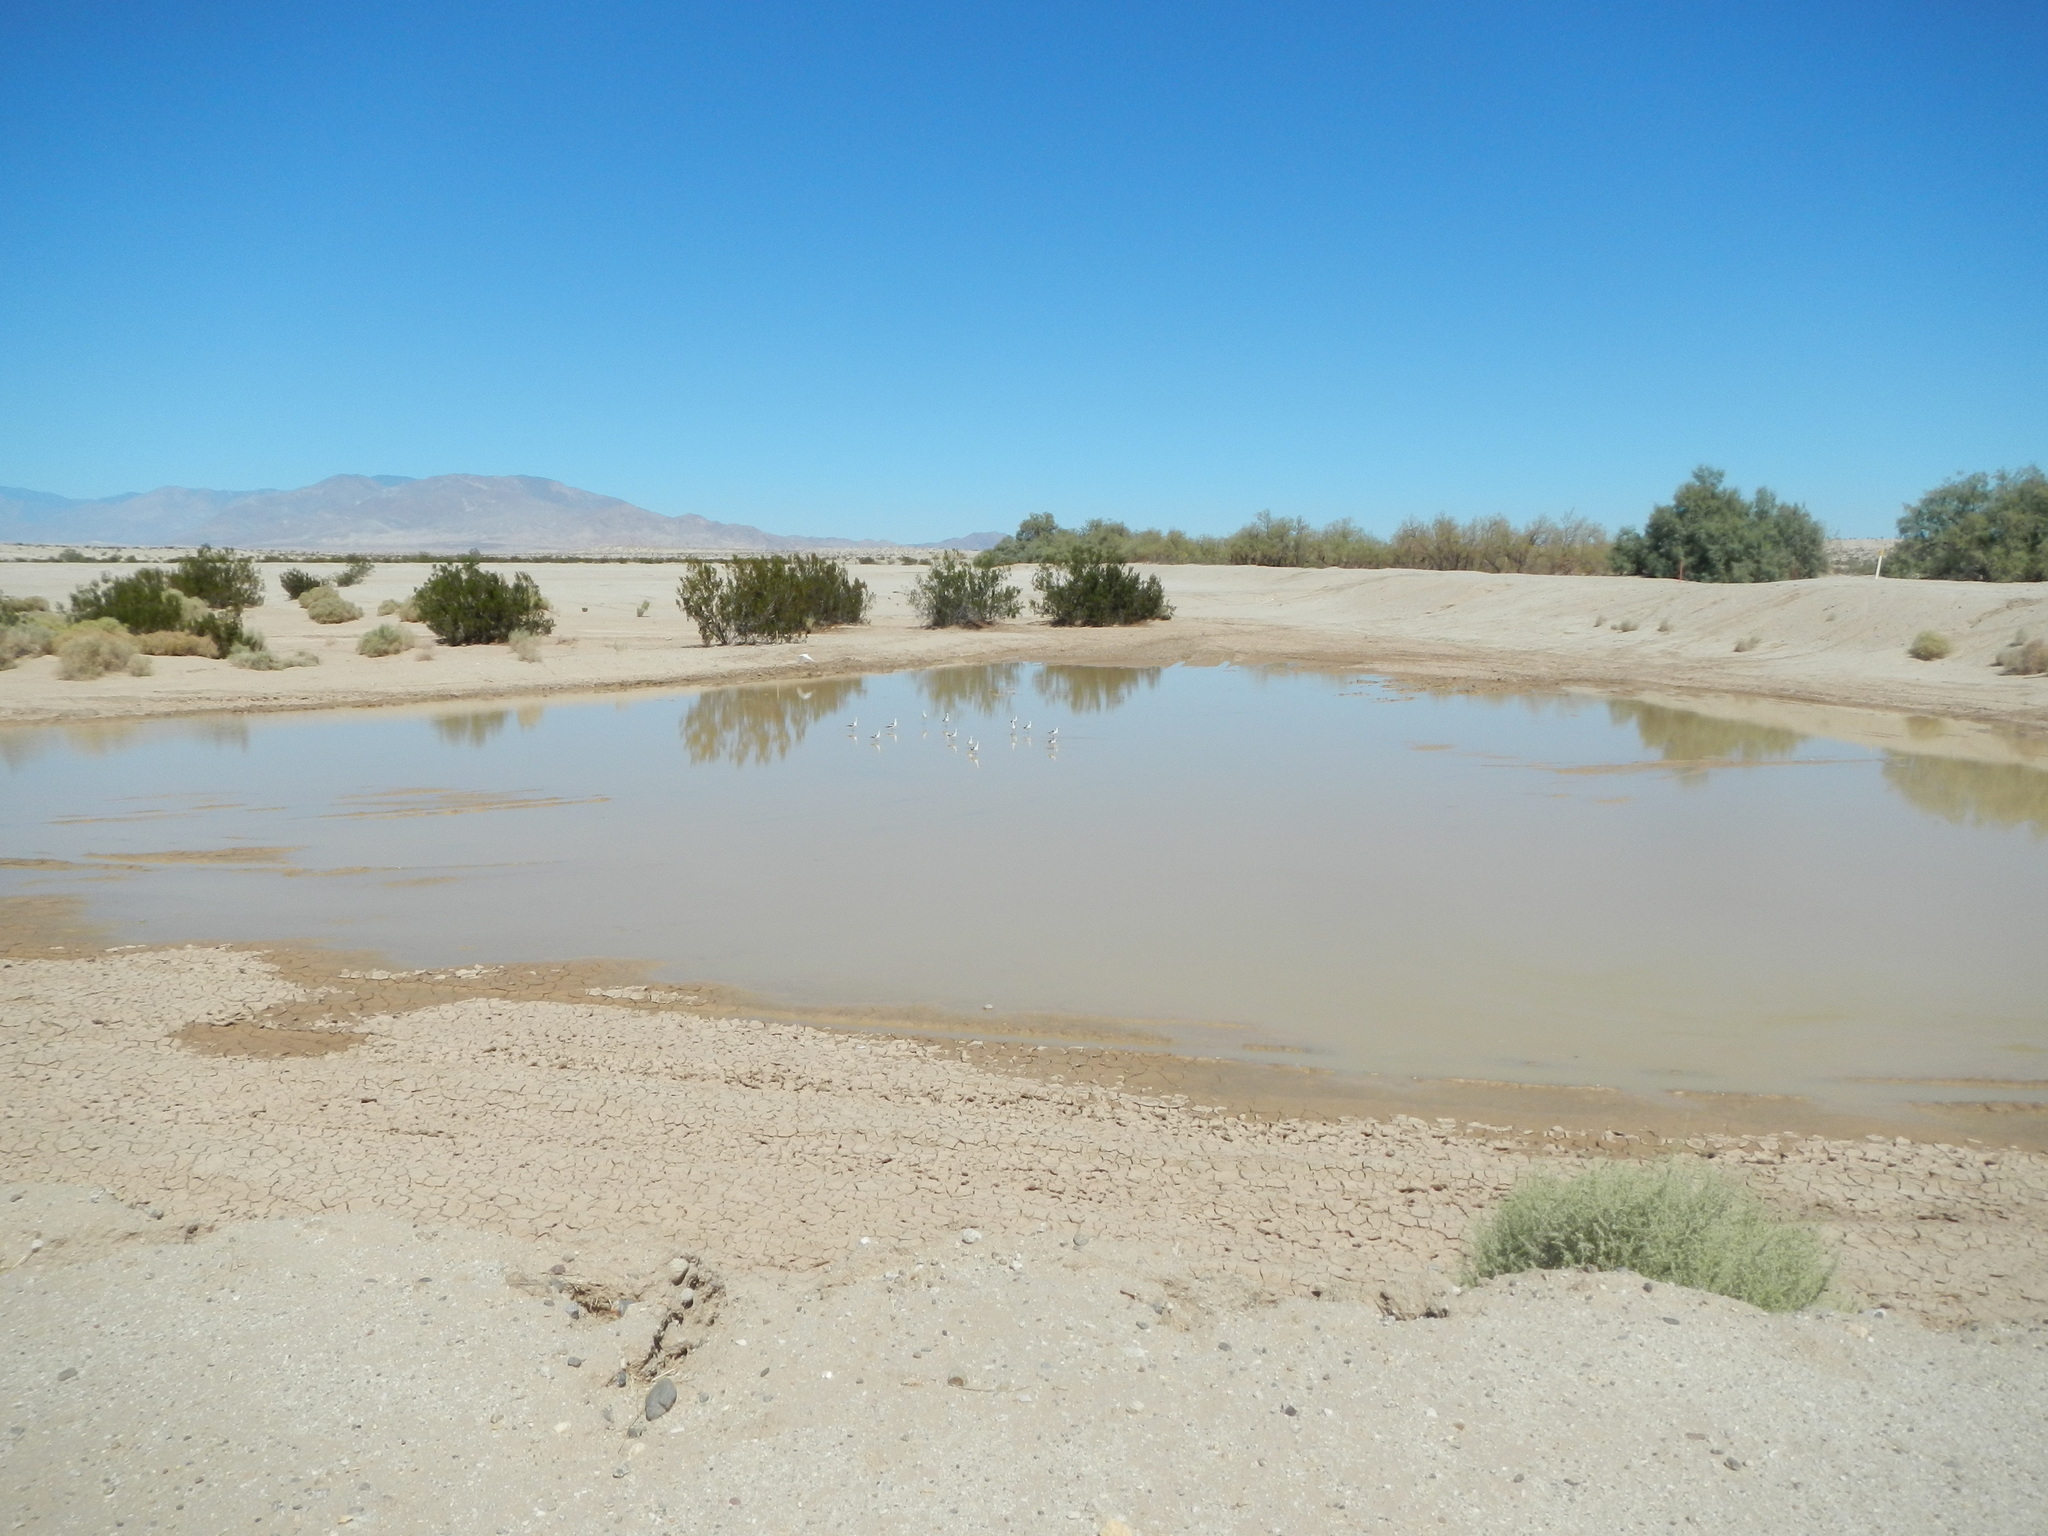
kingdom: Animalia
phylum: Chordata
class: Aves
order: Charadriiformes
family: Recurvirostridae
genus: Recurvirostra
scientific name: Recurvirostra americana
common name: American avocet
